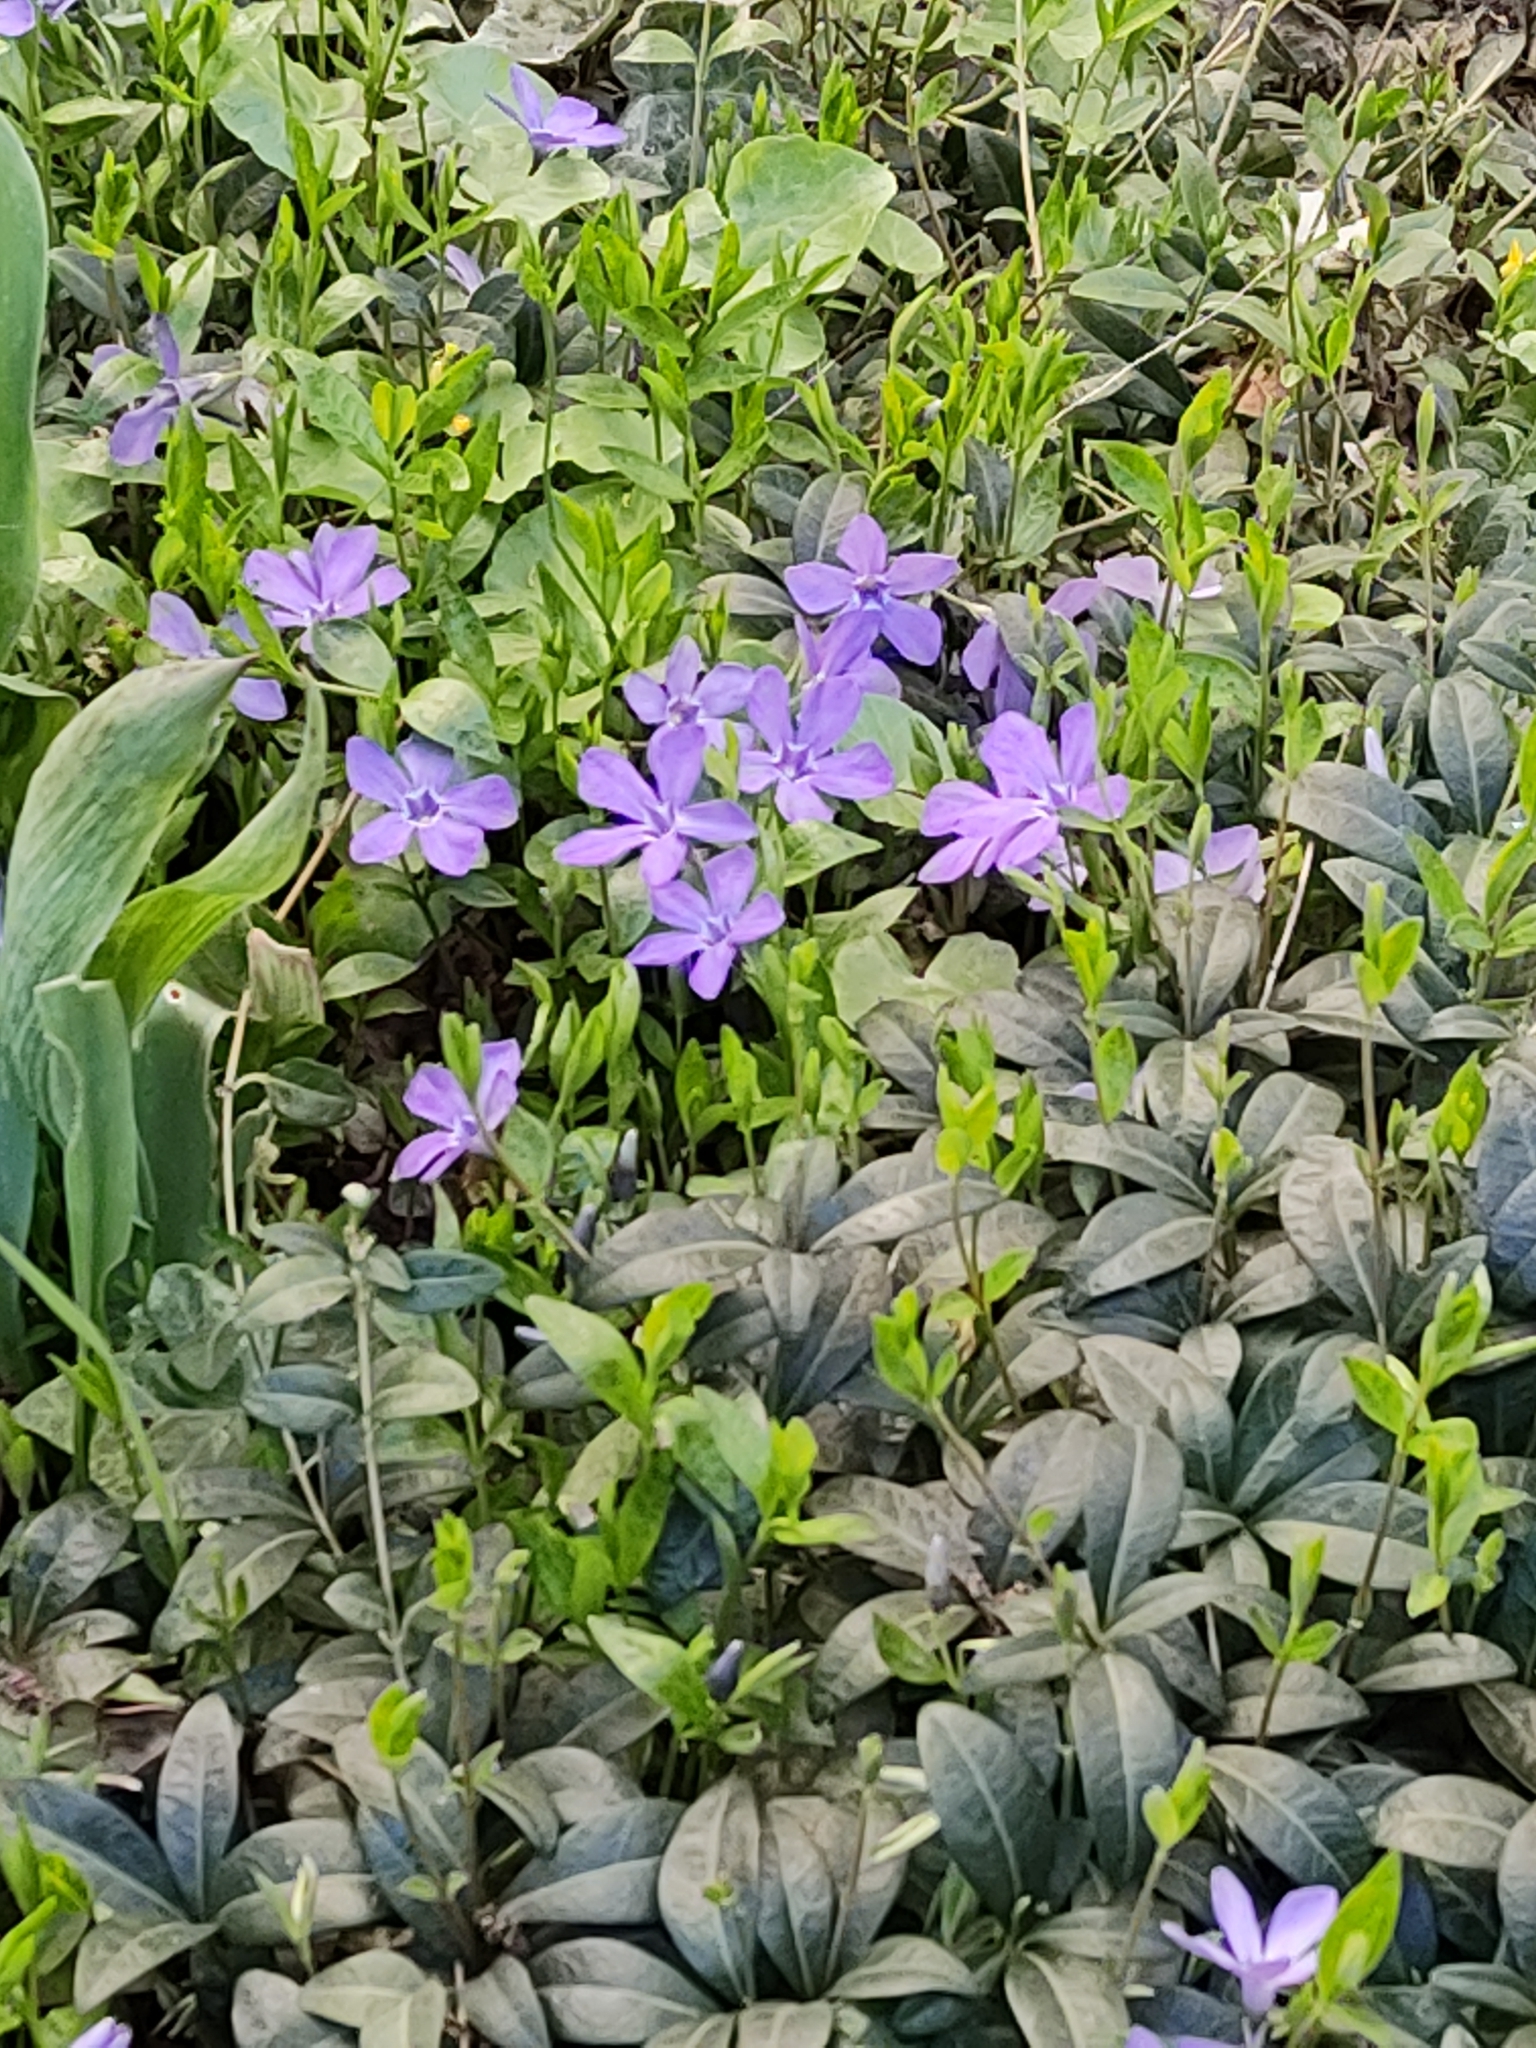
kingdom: Plantae
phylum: Tracheophyta
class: Magnoliopsida
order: Gentianales
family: Apocynaceae
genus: Vinca
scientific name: Vinca minor
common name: Lesser periwinkle
